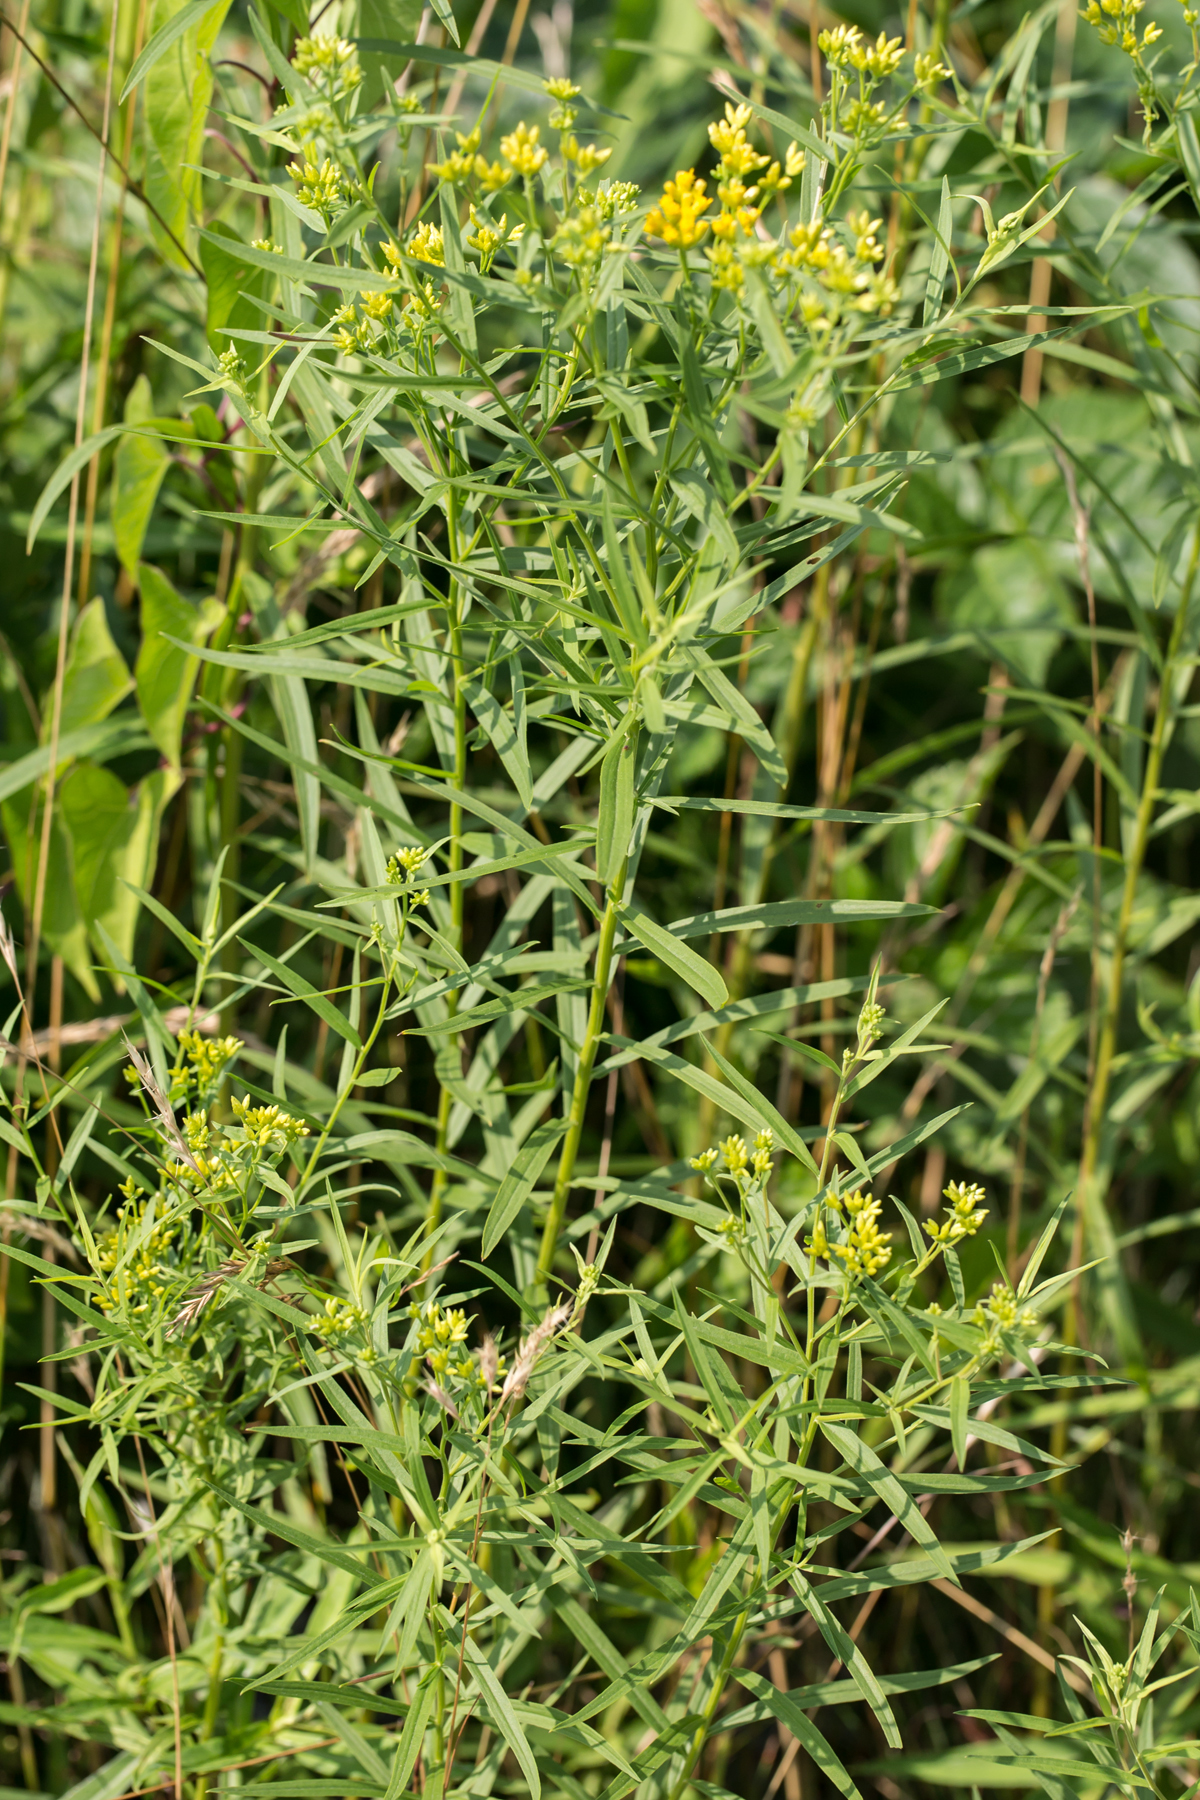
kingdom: Plantae
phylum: Tracheophyta
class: Magnoliopsida
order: Asterales
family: Asteraceae
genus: Euthamia
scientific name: Euthamia graminifolia
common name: Common goldentop
